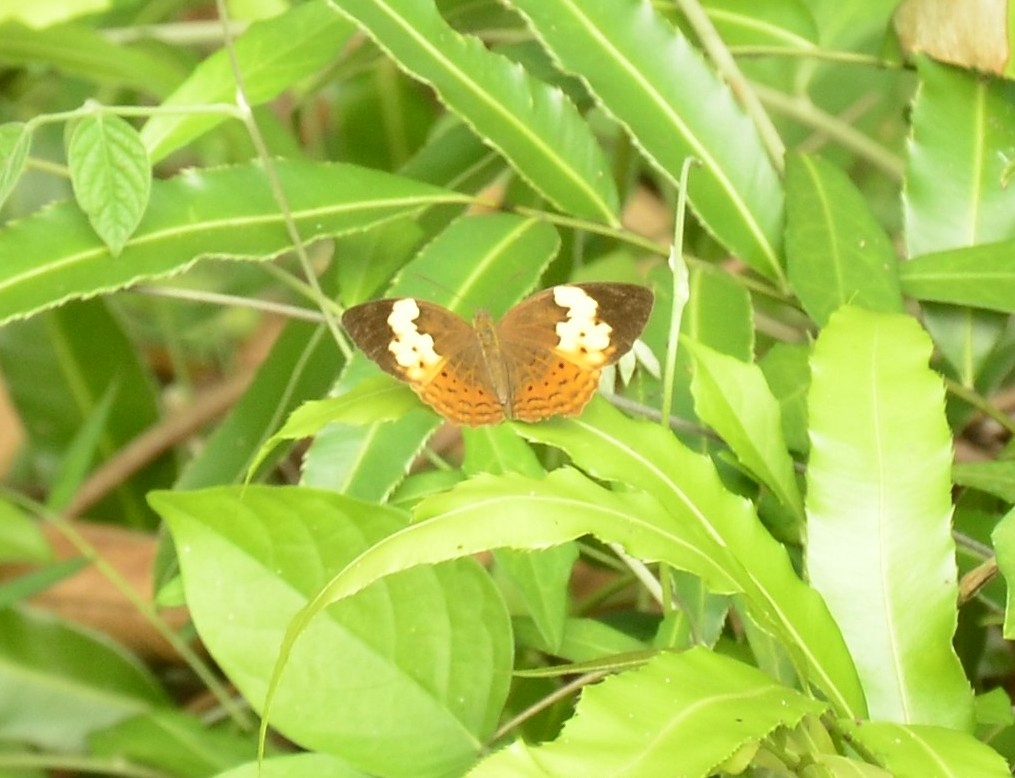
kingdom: Animalia
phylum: Arthropoda
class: Insecta
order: Lepidoptera
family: Nymphalidae
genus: Cupha
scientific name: Cupha erymanthis
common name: Rustic
